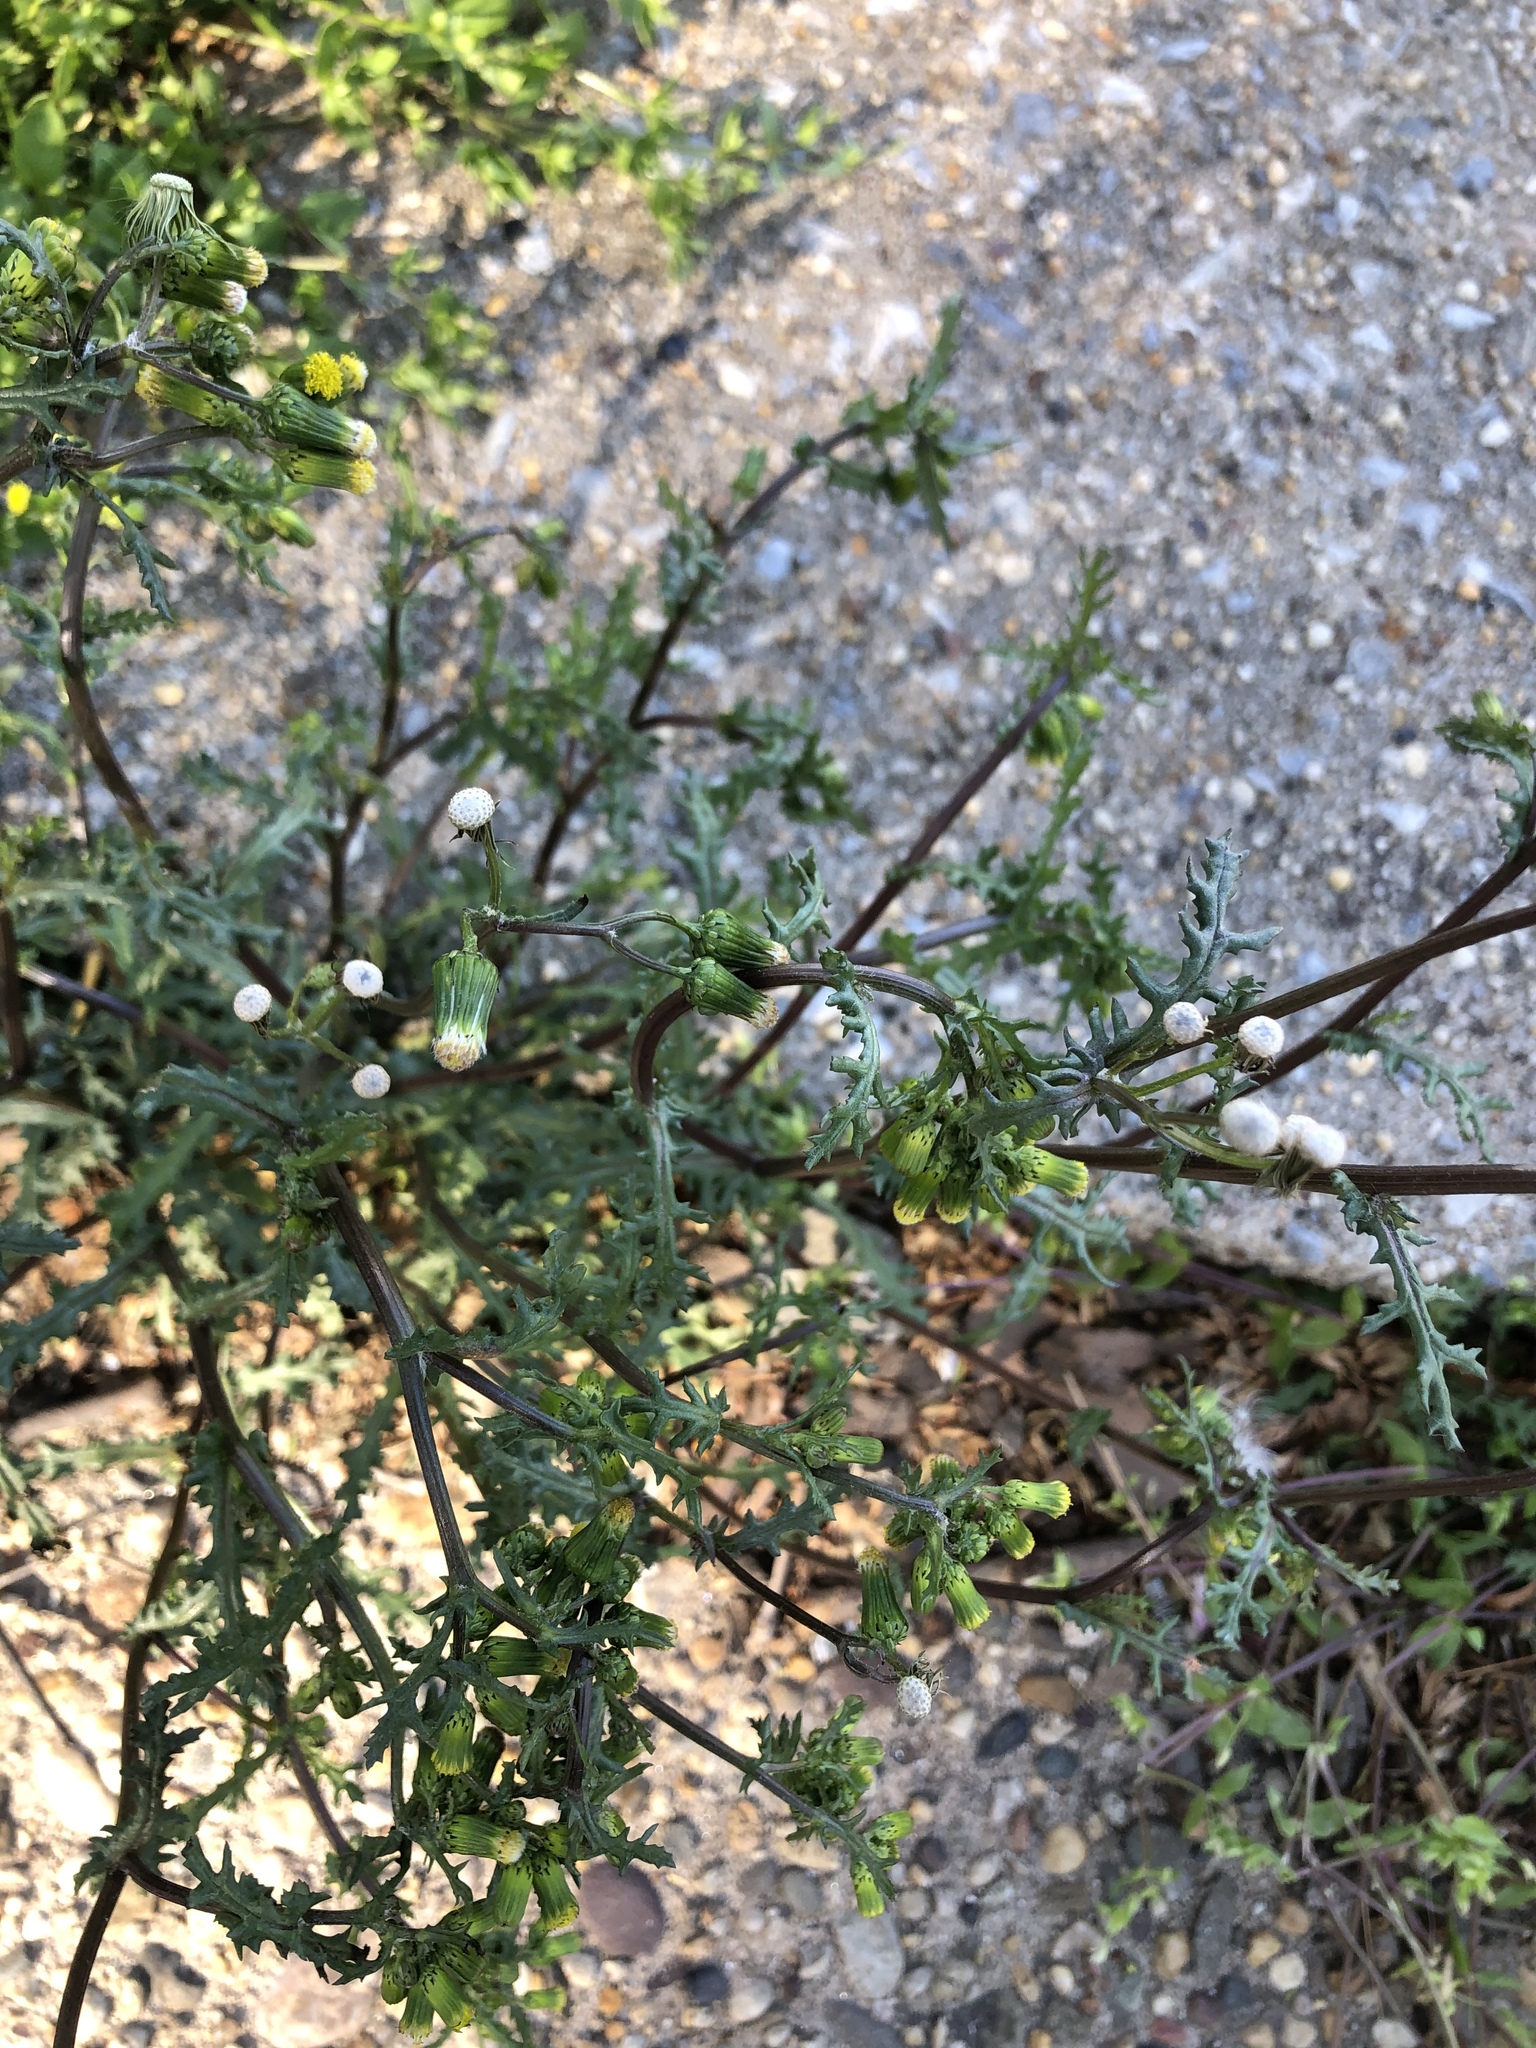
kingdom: Plantae
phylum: Tracheophyta
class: Magnoliopsida
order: Asterales
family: Asteraceae
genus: Senecio
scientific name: Senecio vulgaris
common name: Old-man-in-the-spring
